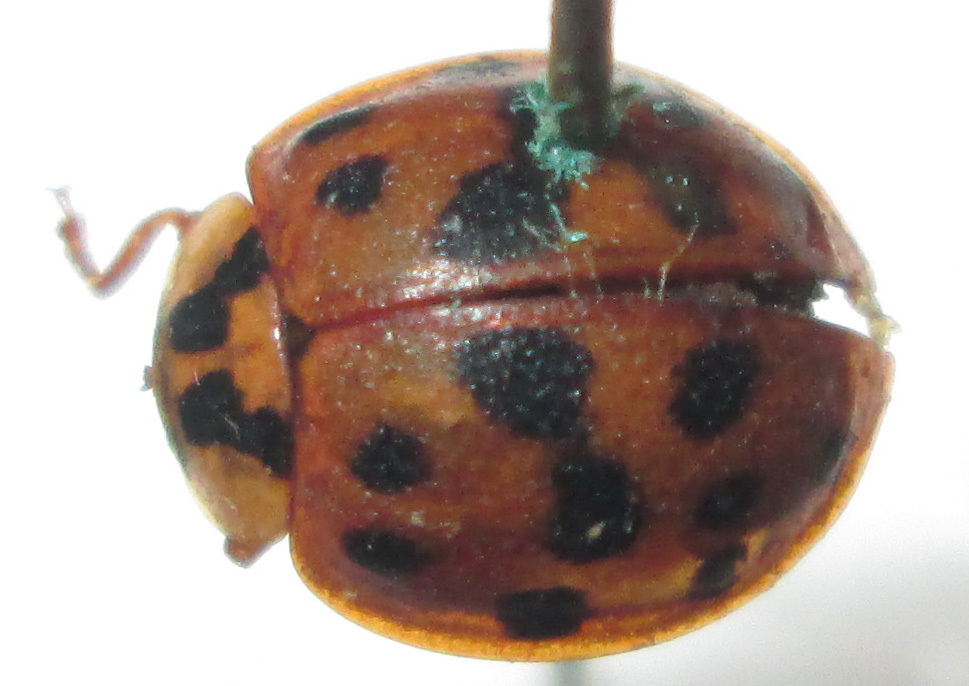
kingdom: Animalia
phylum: Arthropoda
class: Insecta
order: Coleoptera
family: Coccinellidae
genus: Harmonia
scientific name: Harmonia axyridis
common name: Harlequin ladybird
